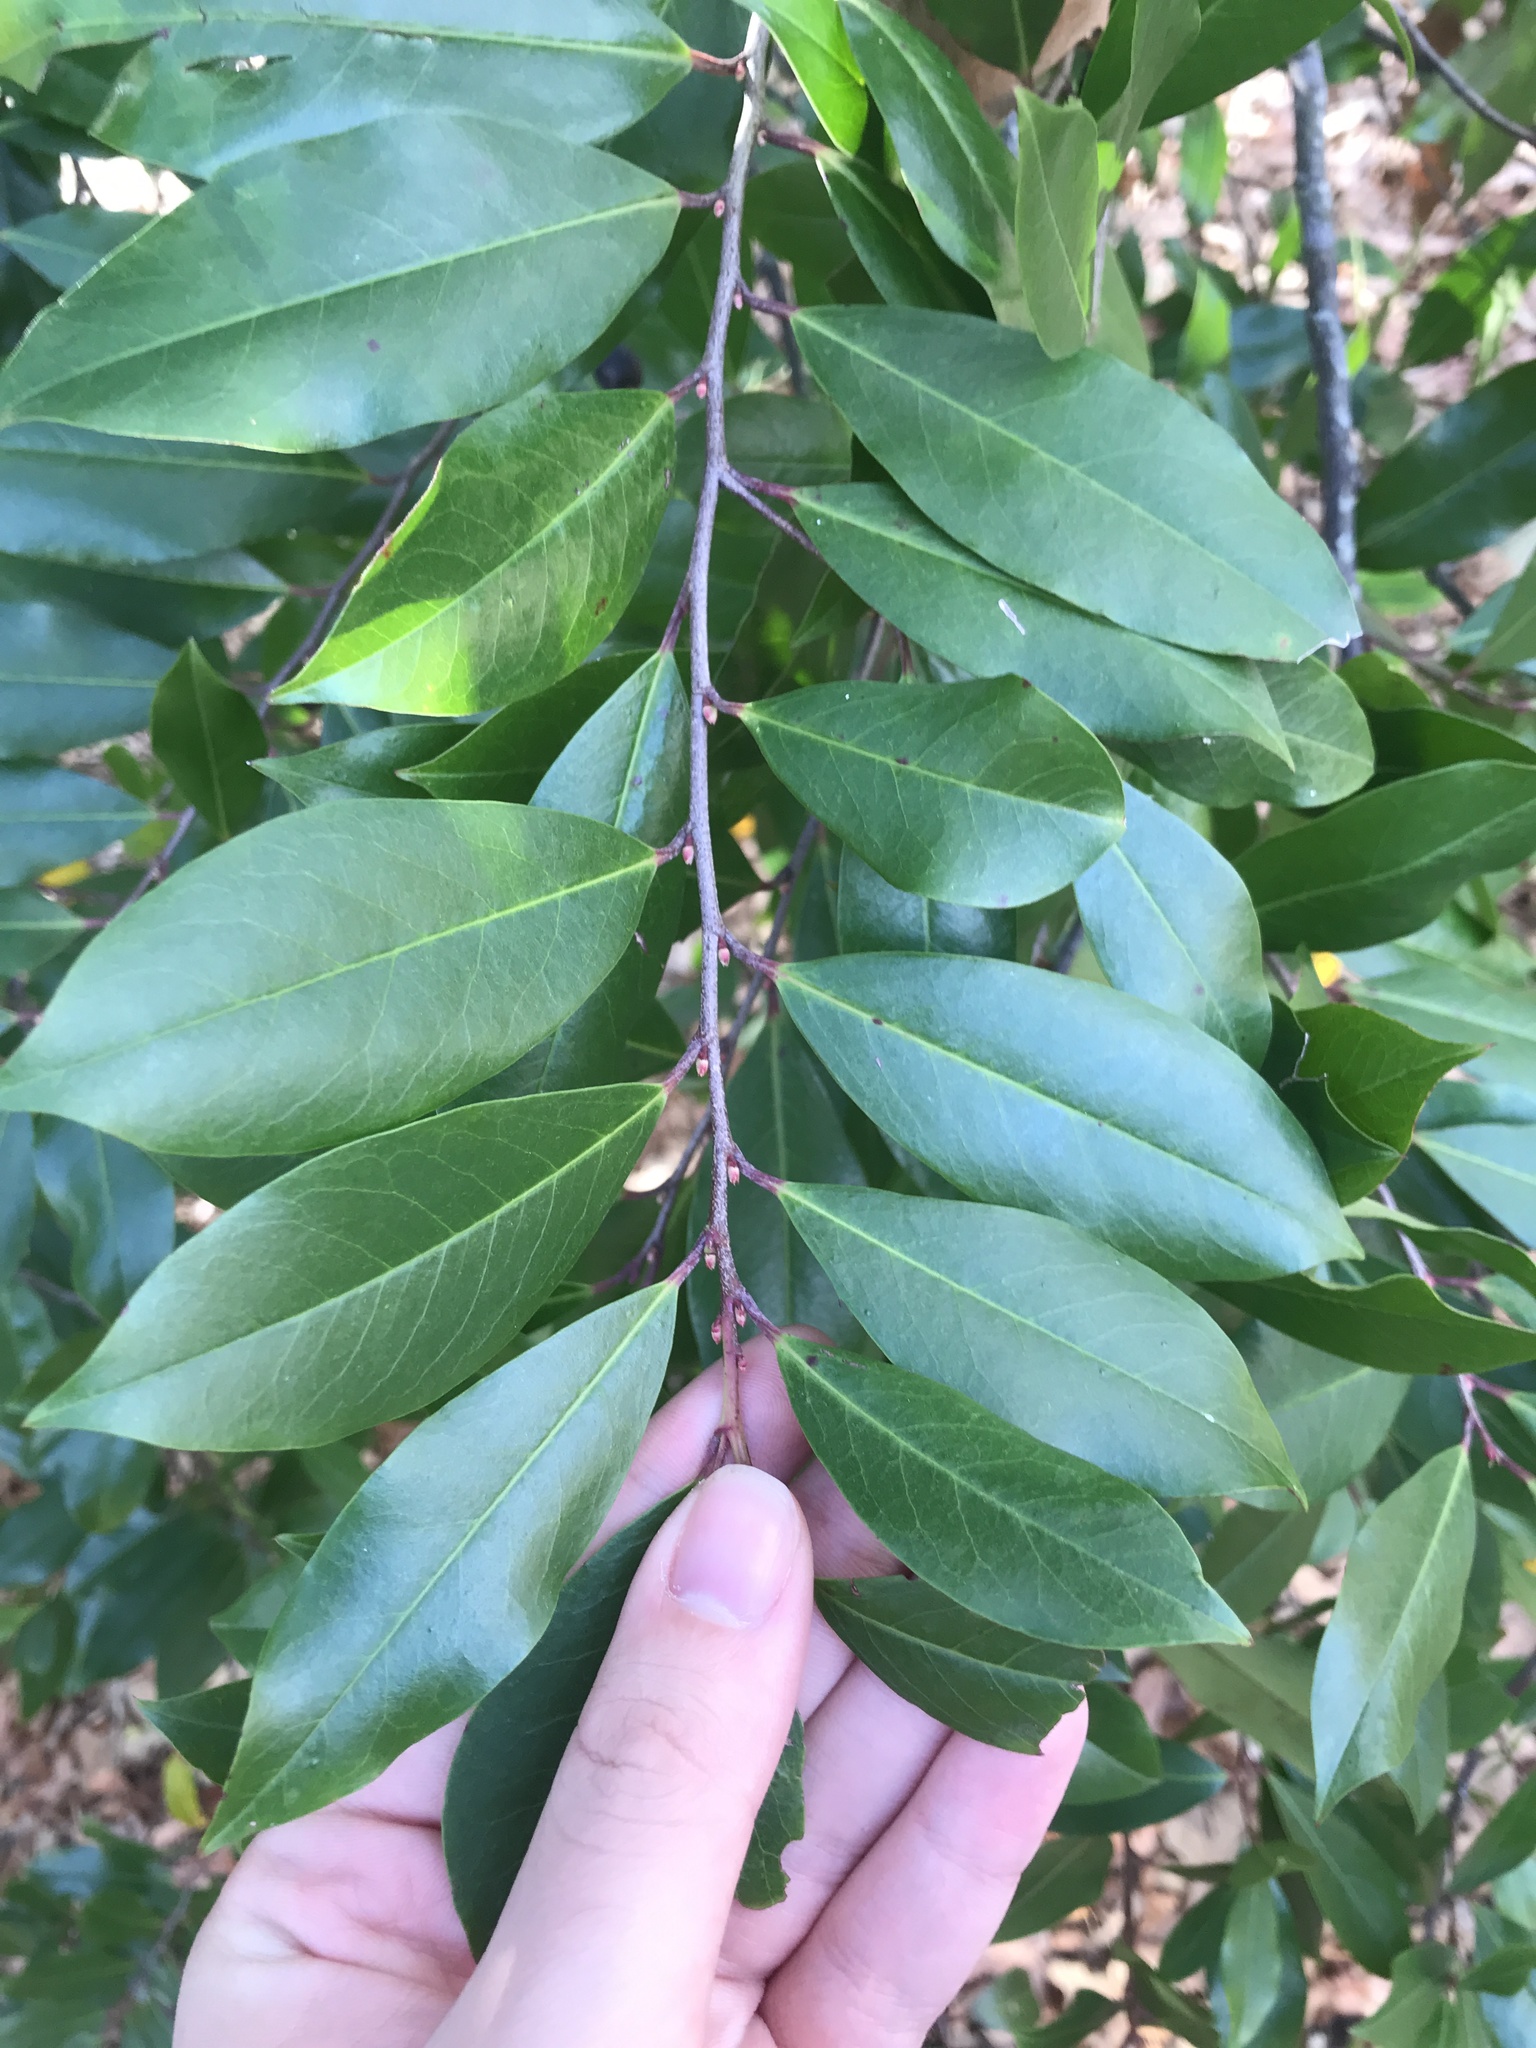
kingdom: Plantae
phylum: Tracheophyta
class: Magnoliopsida
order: Rosales
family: Rosaceae
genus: Prunus
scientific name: Prunus caroliniana
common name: Carolina laurel cherry
